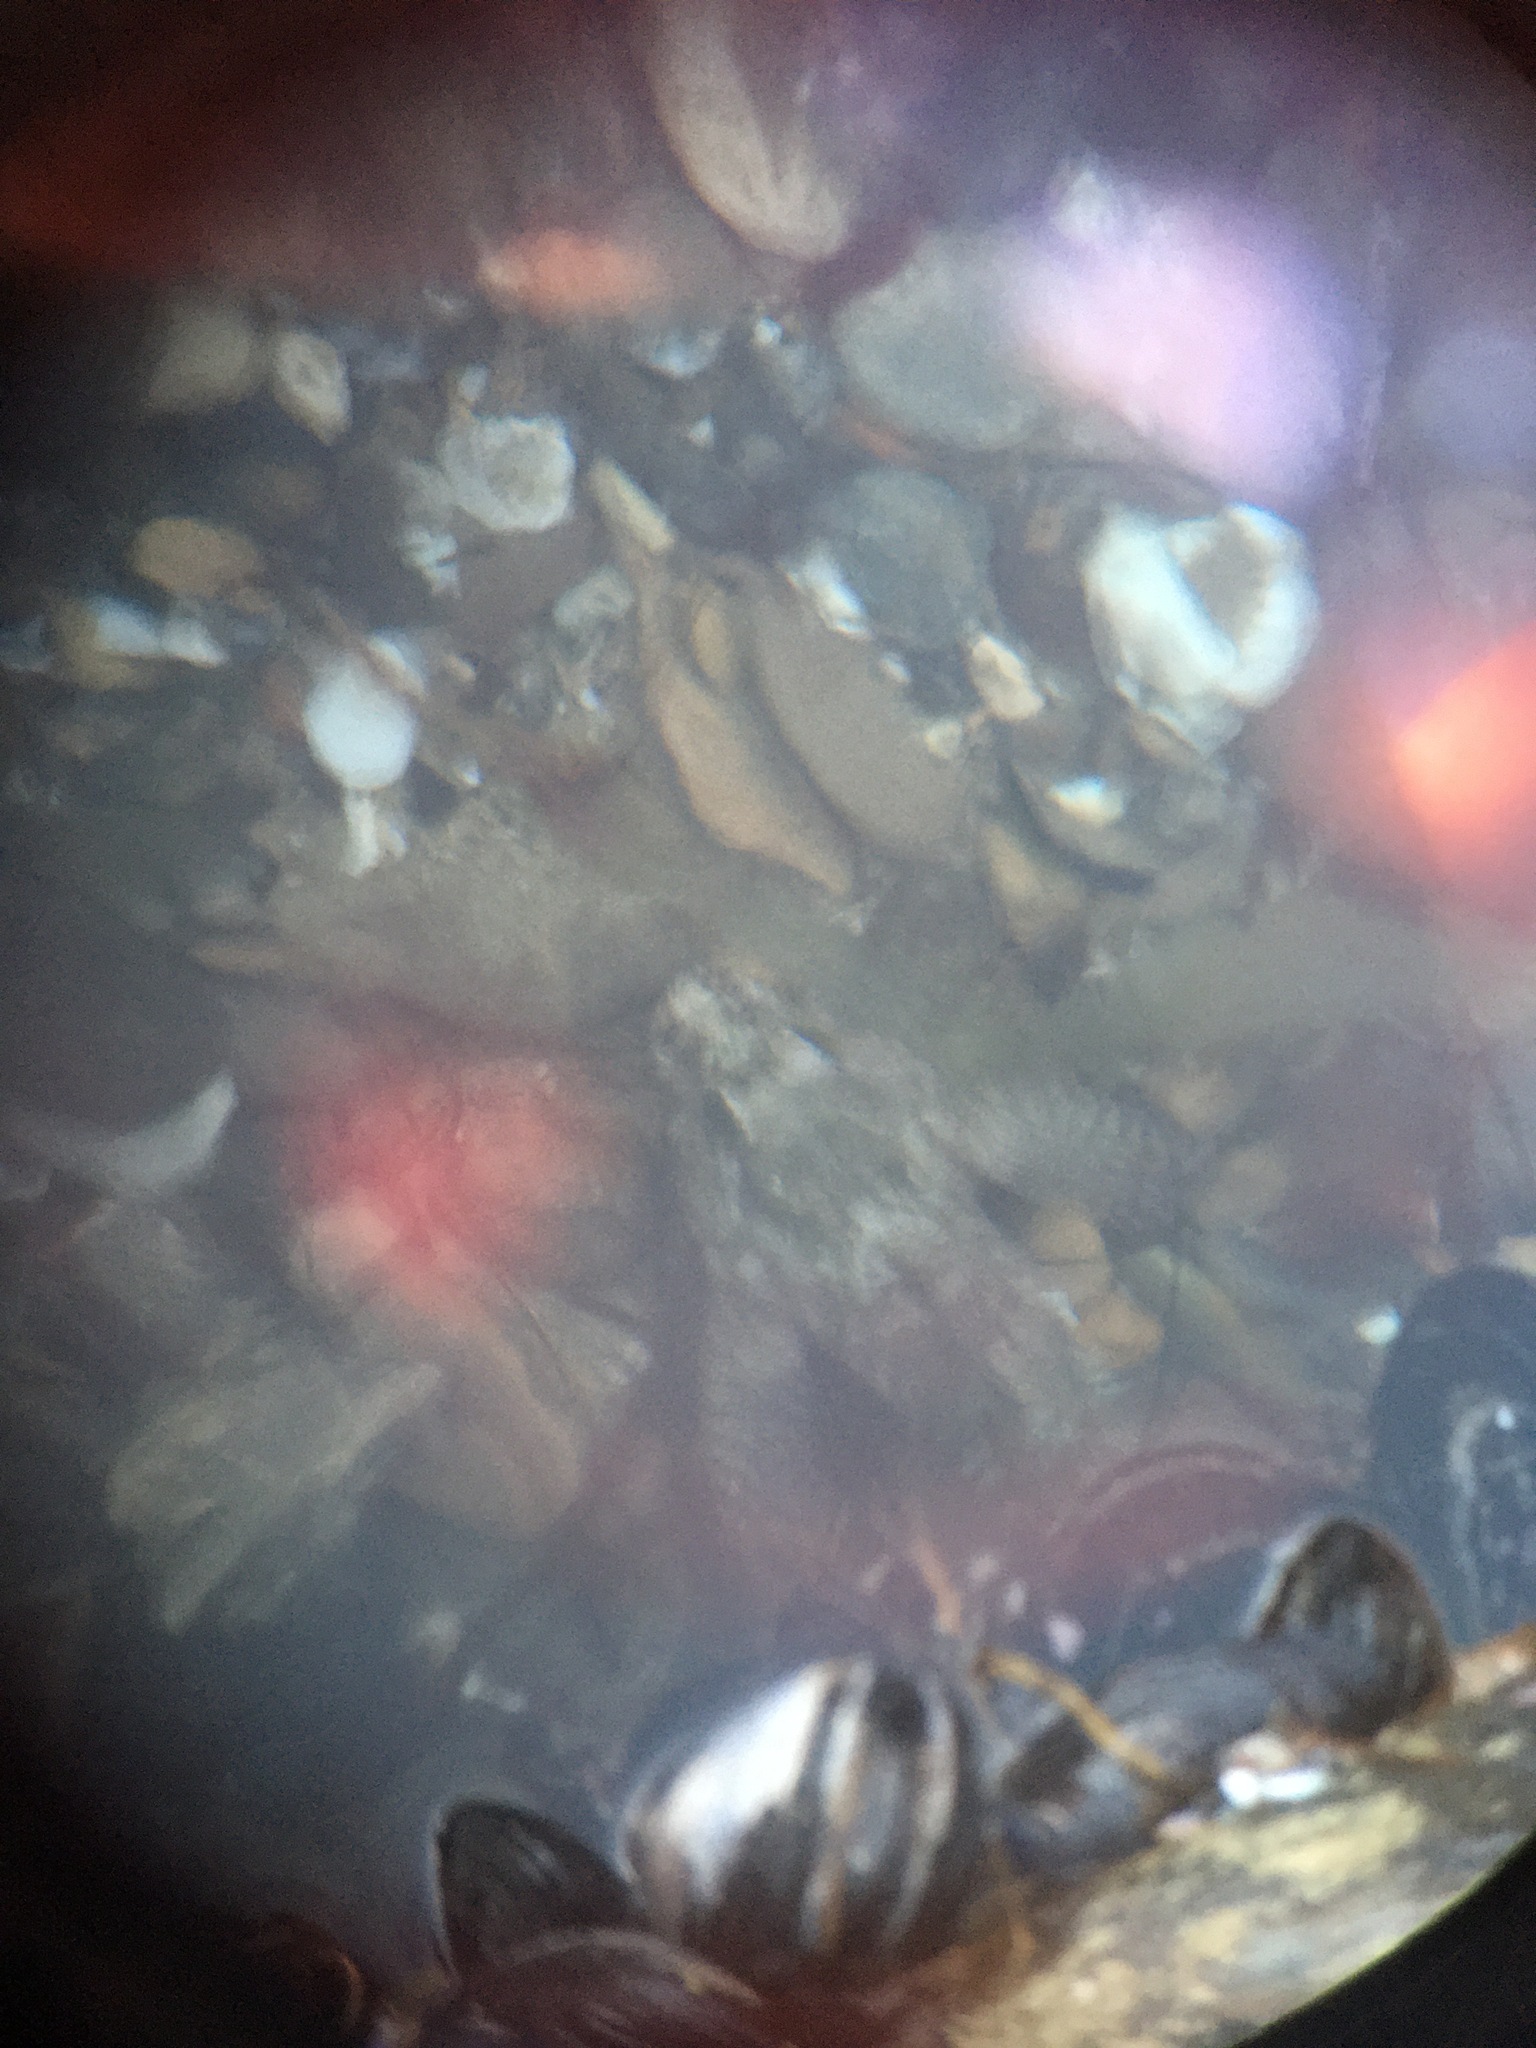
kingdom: Animalia
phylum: Chordata
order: Scorpaeniformes
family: Cottidae
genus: Clinocottus
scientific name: Clinocottus analis
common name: Woolly sculpin
